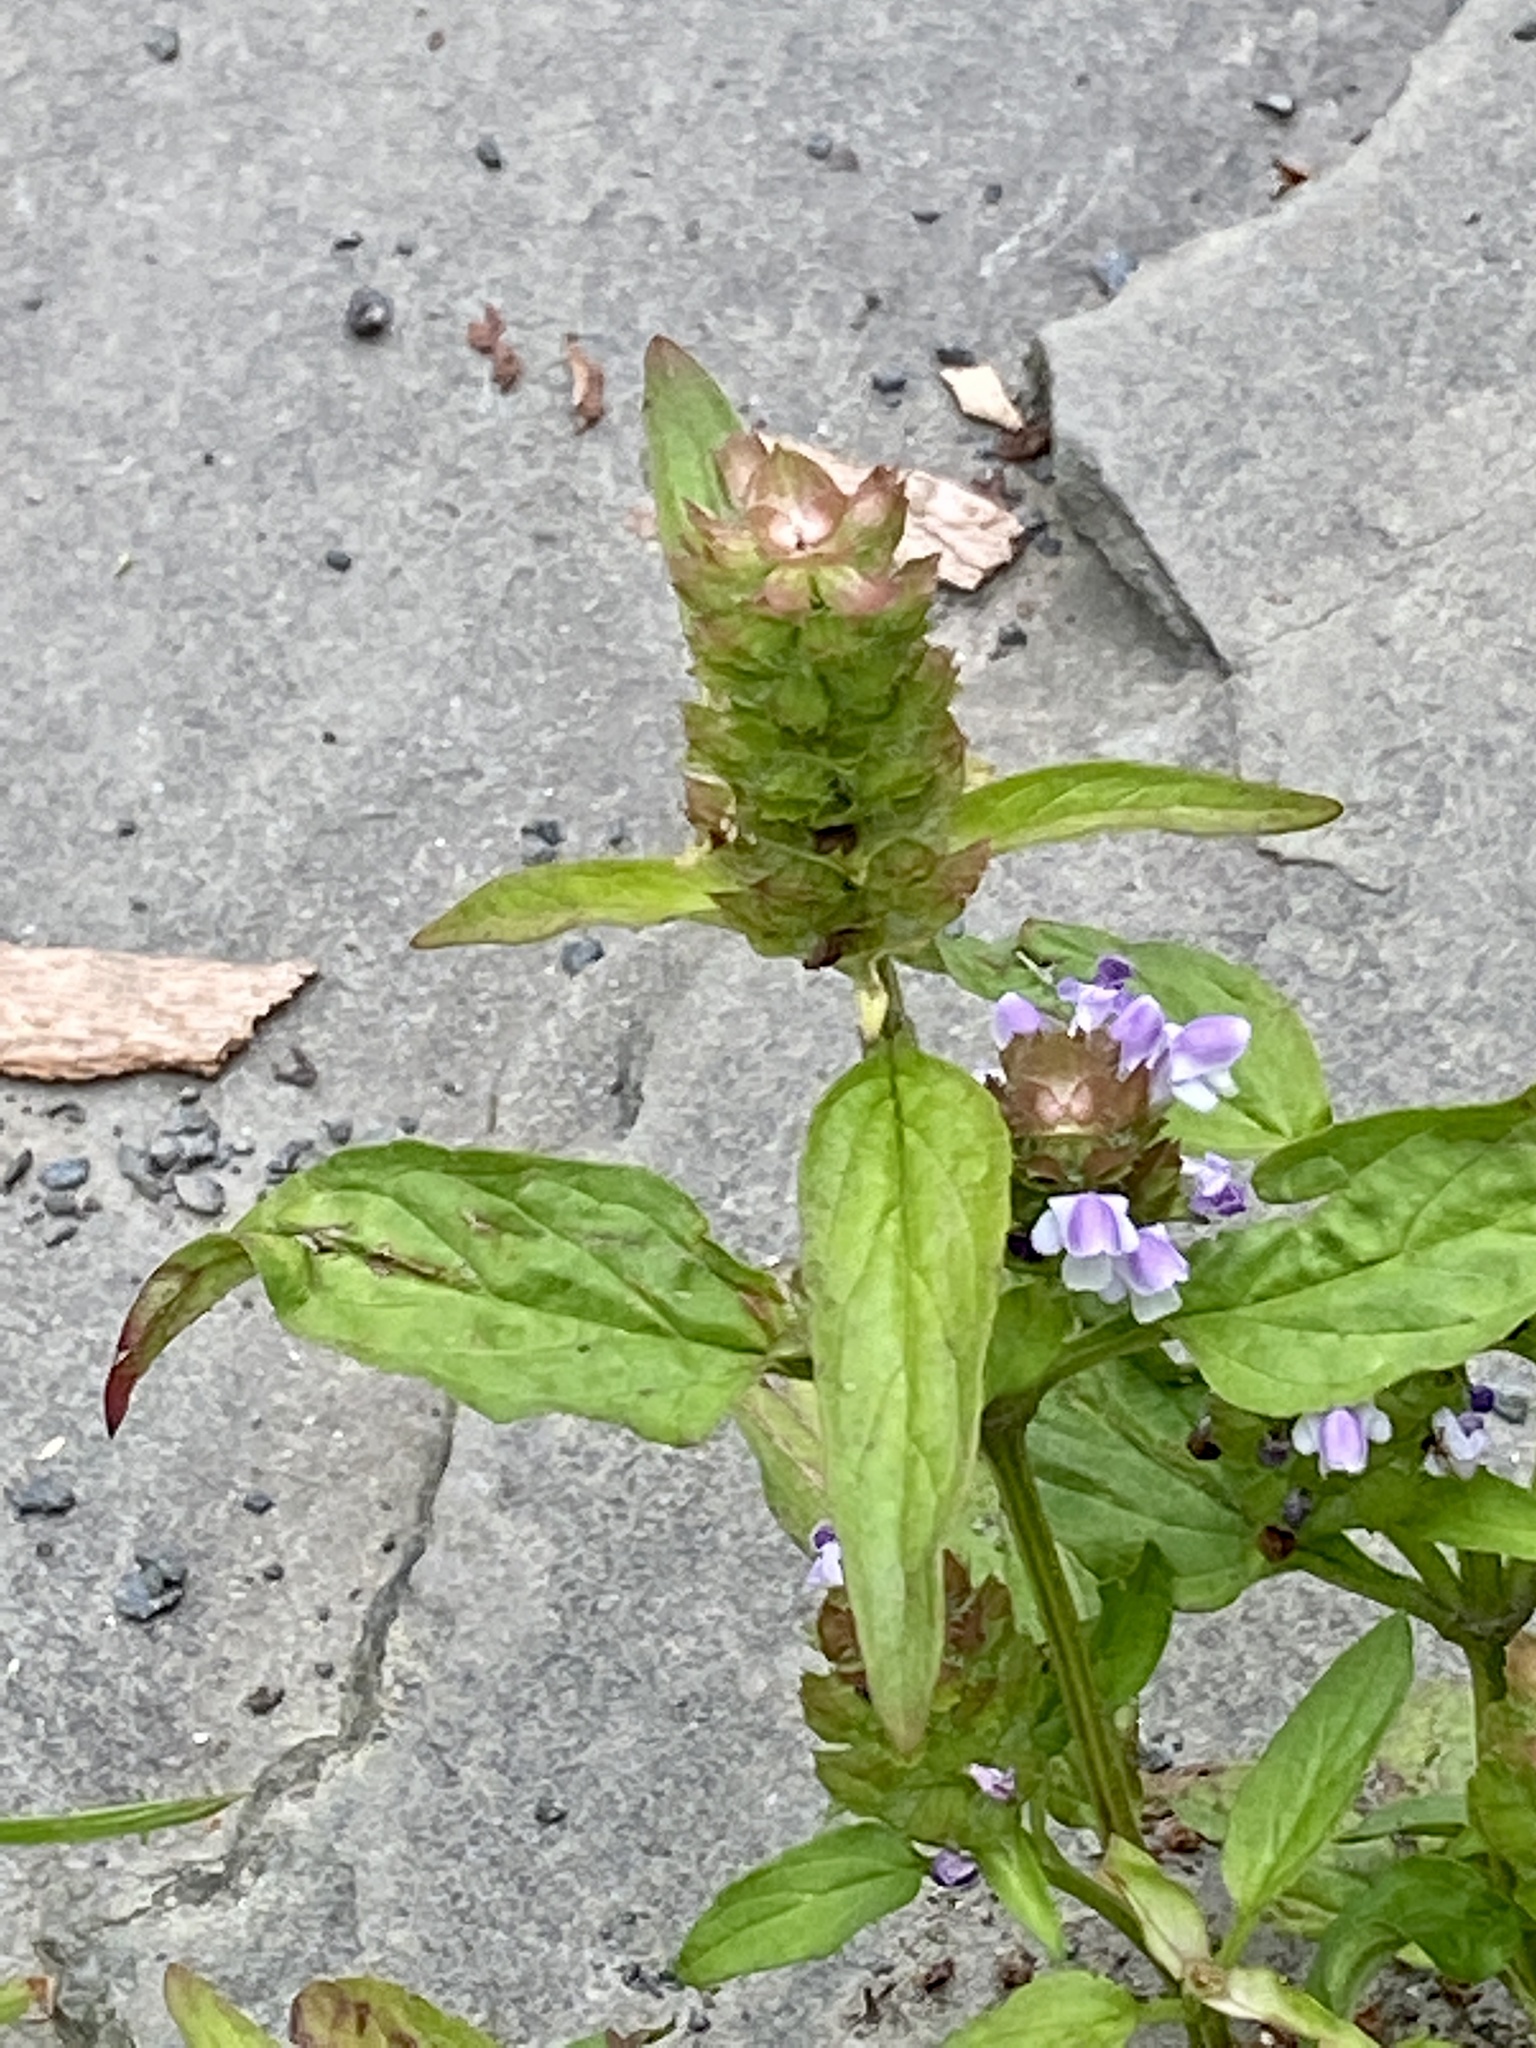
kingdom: Plantae
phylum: Tracheophyta
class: Magnoliopsida
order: Lamiales
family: Lamiaceae
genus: Prunella
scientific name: Prunella vulgaris
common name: Heal-all
